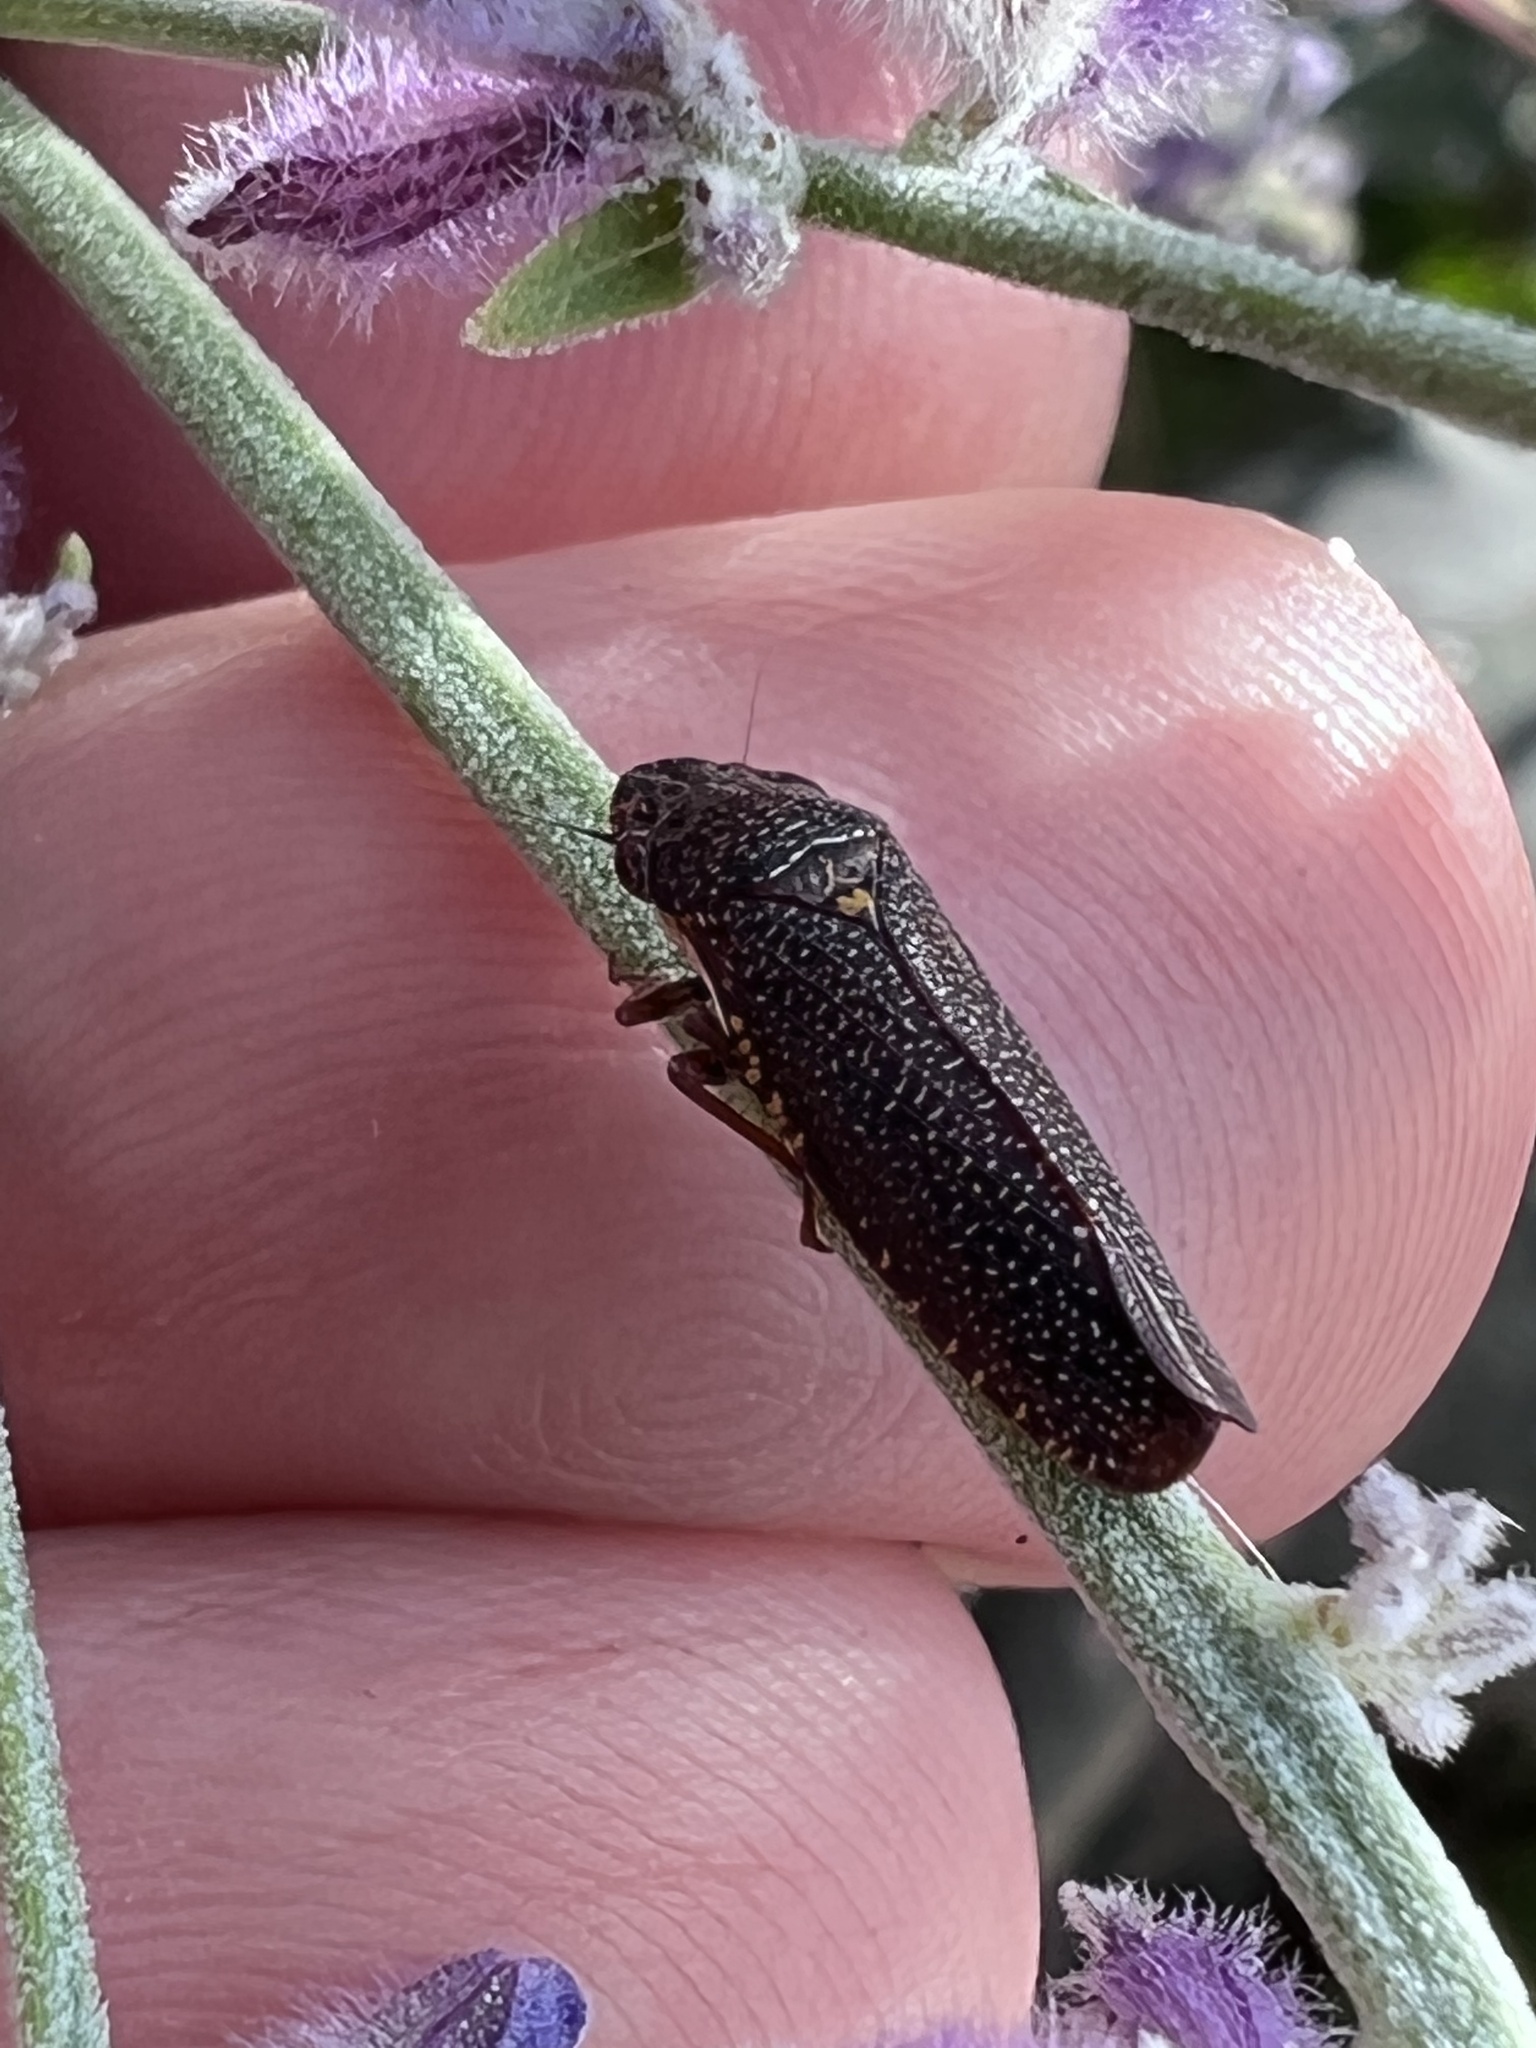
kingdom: Animalia
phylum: Arthropoda
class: Insecta
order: Hemiptera
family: Cicadellidae
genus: Paraulacizes
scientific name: Paraulacizes irrorata
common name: Speckled sharpshooter
